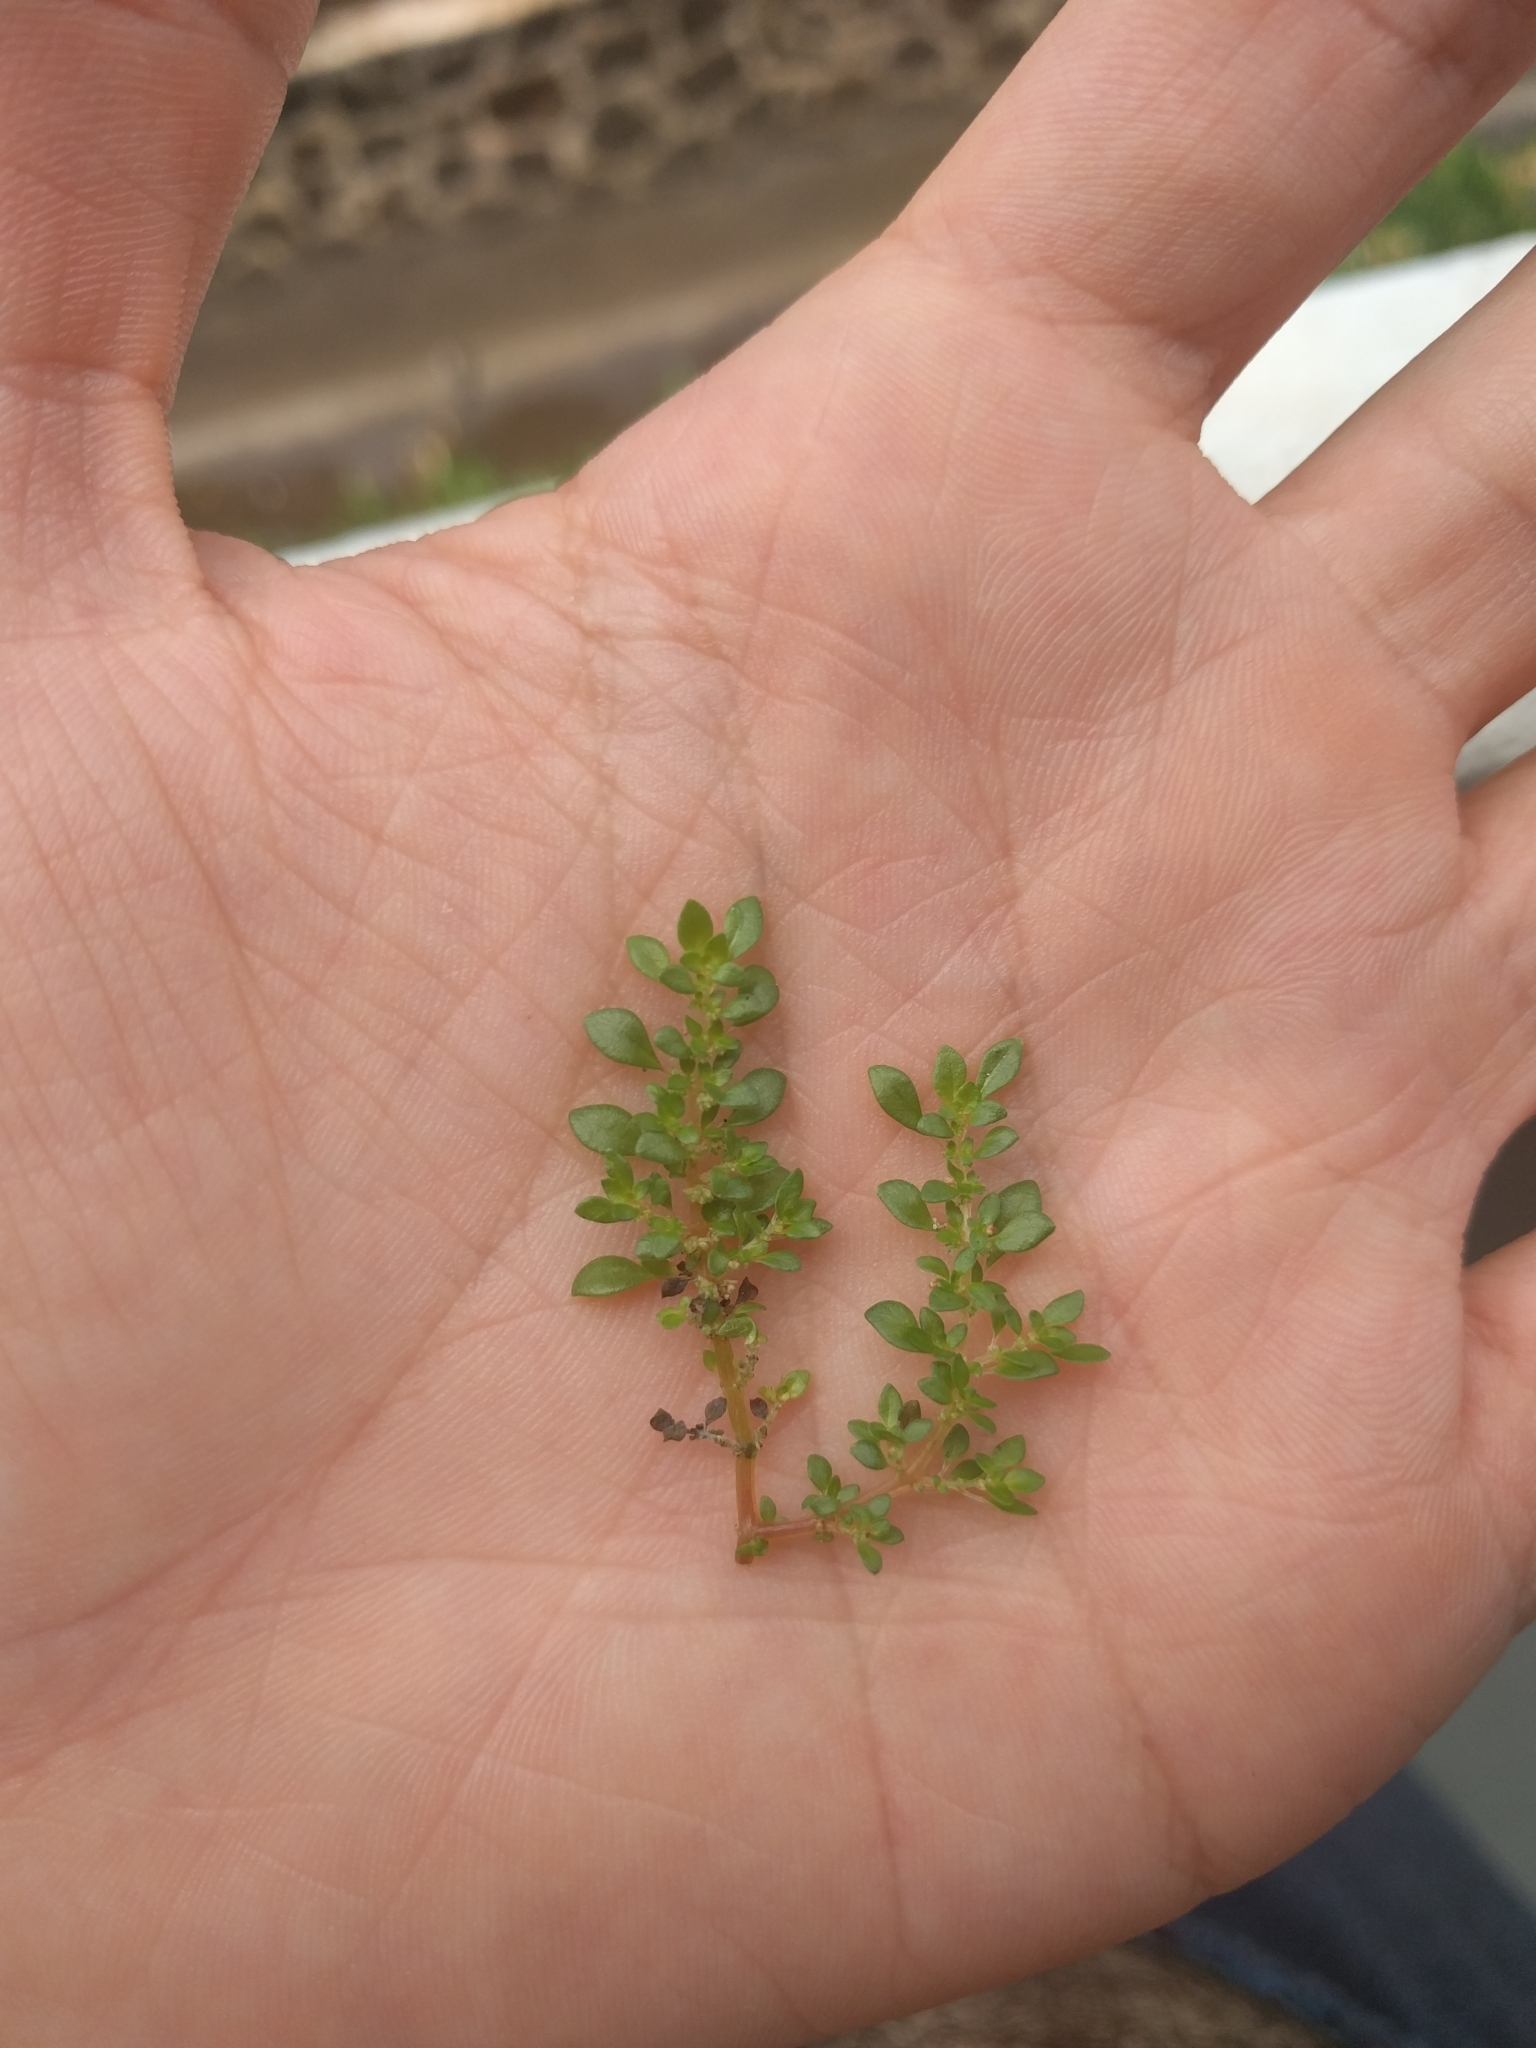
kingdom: Plantae
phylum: Tracheophyta
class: Magnoliopsida
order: Rosales
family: Urticaceae
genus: Pilea
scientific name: Pilea microphylla
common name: Artillery-plant
